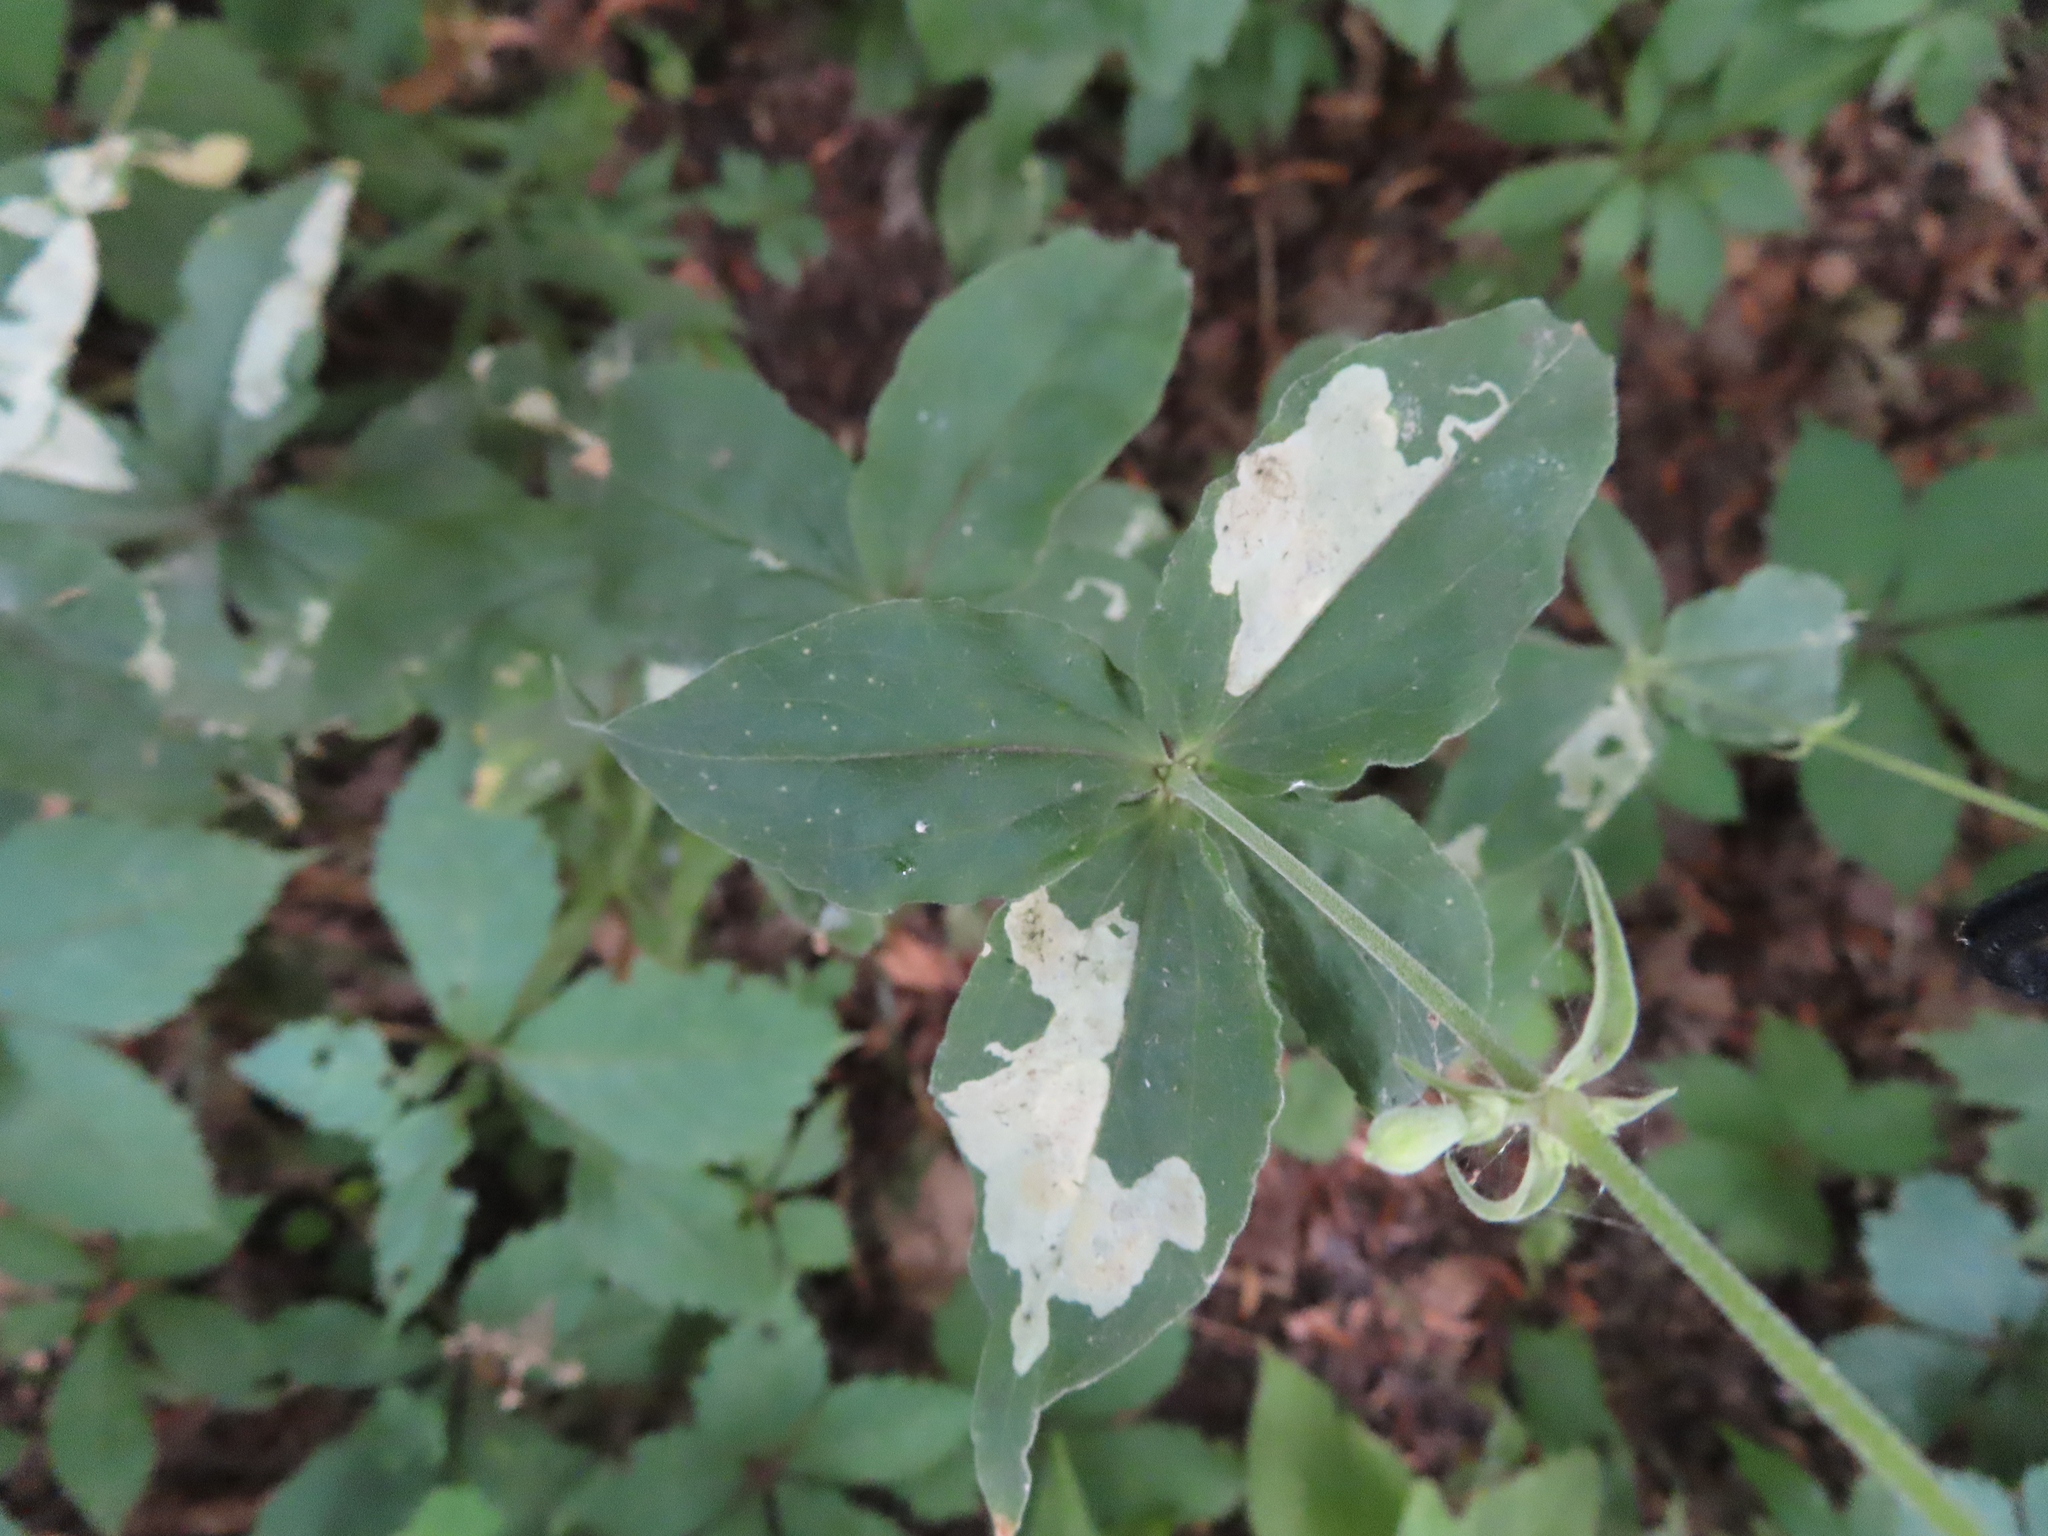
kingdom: Animalia
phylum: Arthropoda
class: Insecta
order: Diptera
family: Agromyzidae
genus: Amauromyza
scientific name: Amauromyza flavifrons
